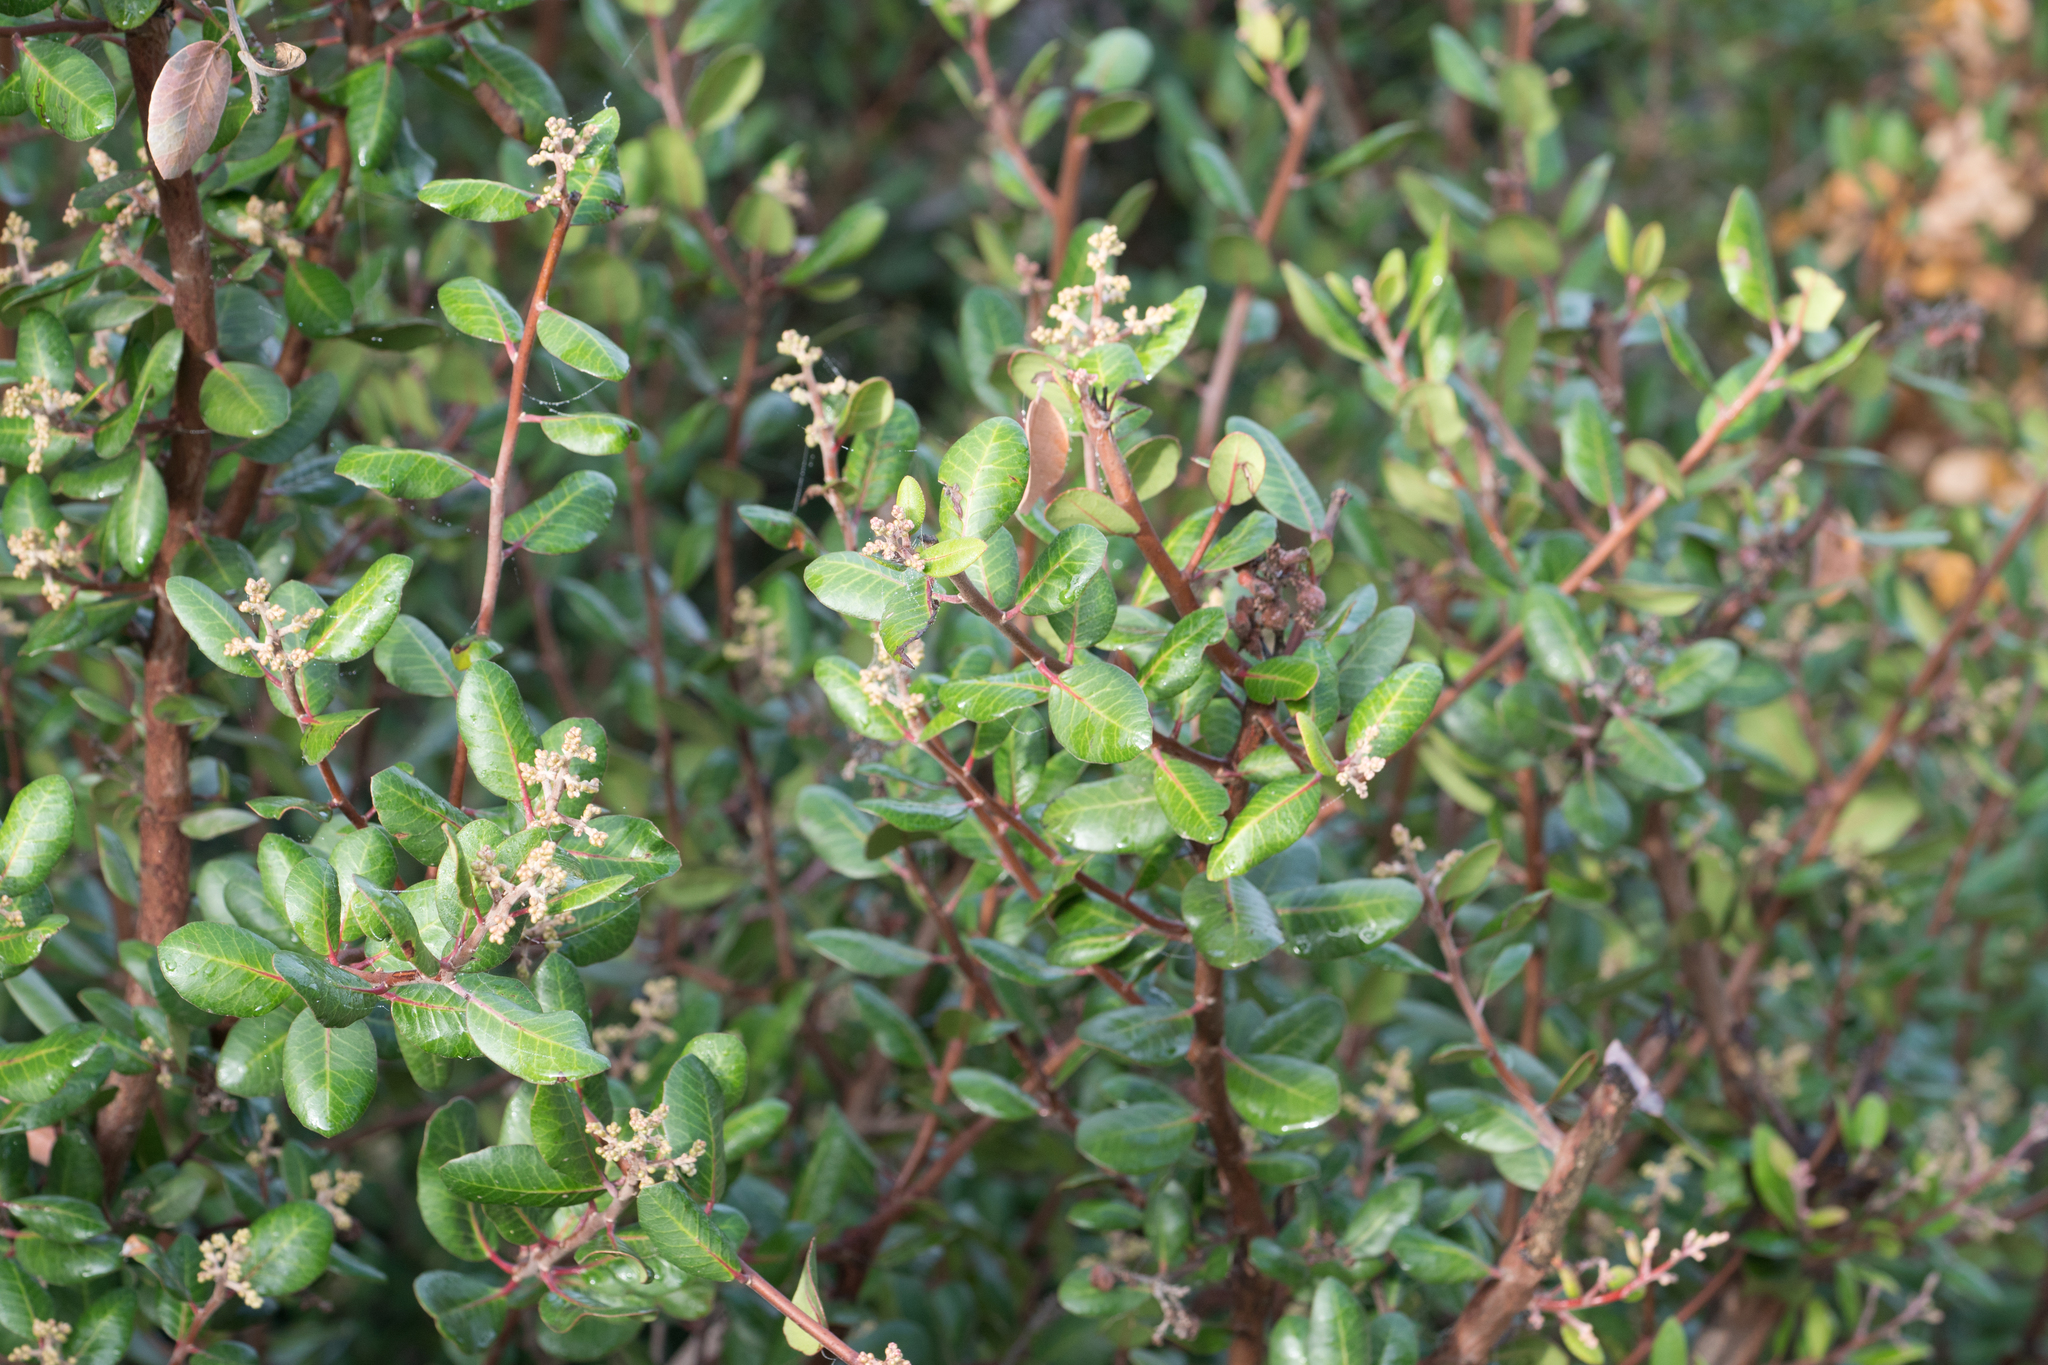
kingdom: Plantae
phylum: Tracheophyta
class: Magnoliopsida
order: Sapindales
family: Anacardiaceae
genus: Rhus
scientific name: Rhus integrifolia
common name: Lemonade sumac
